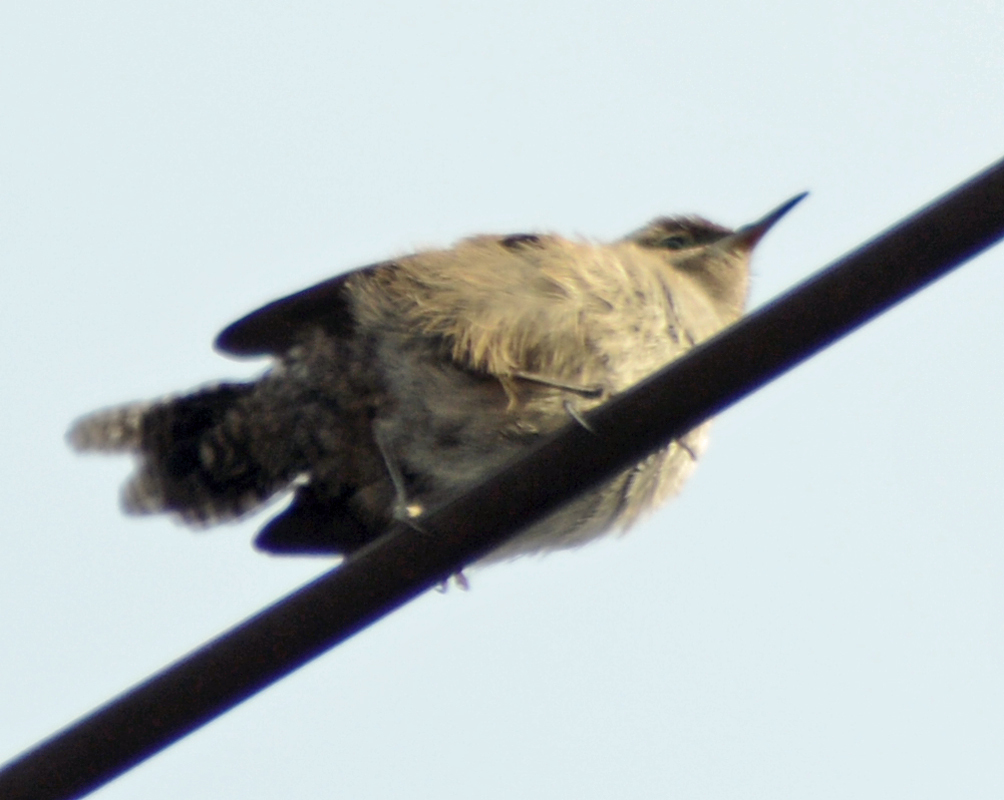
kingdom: Animalia
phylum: Chordata
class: Aves
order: Passeriformes
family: Troglodytidae
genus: Thryomanes
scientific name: Thryomanes bewickii
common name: Bewick's wren
